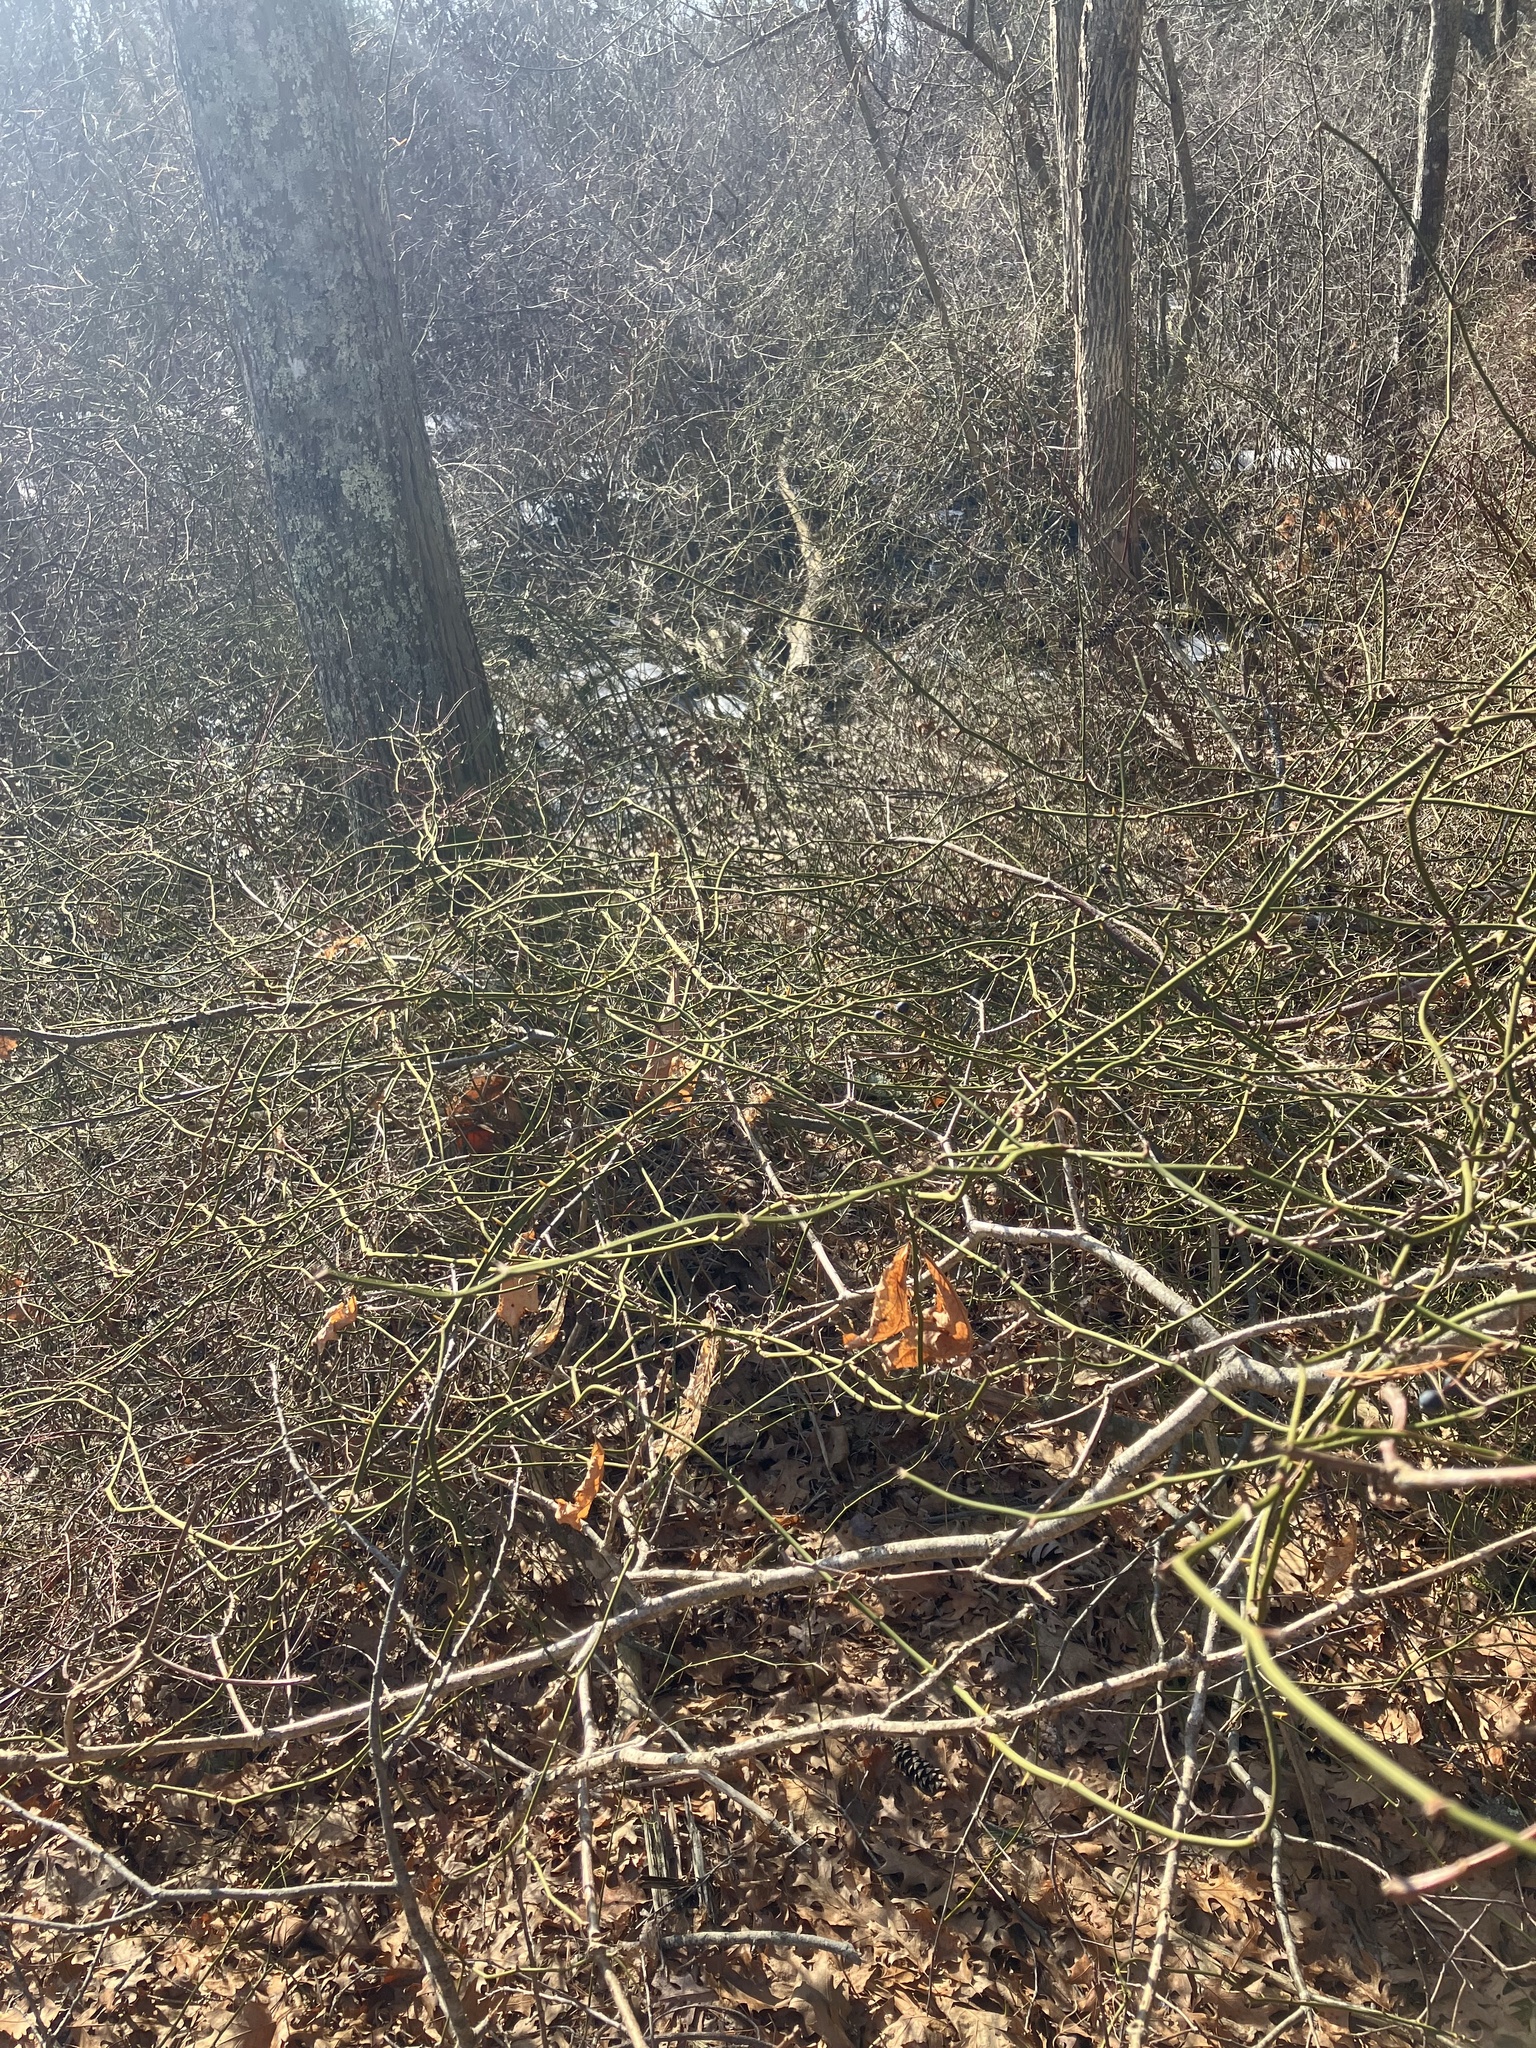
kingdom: Plantae
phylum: Tracheophyta
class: Liliopsida
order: Liliales
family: Smilacaceae
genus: Smilax
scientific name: Smilax rotundifolia
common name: Bullbriar
